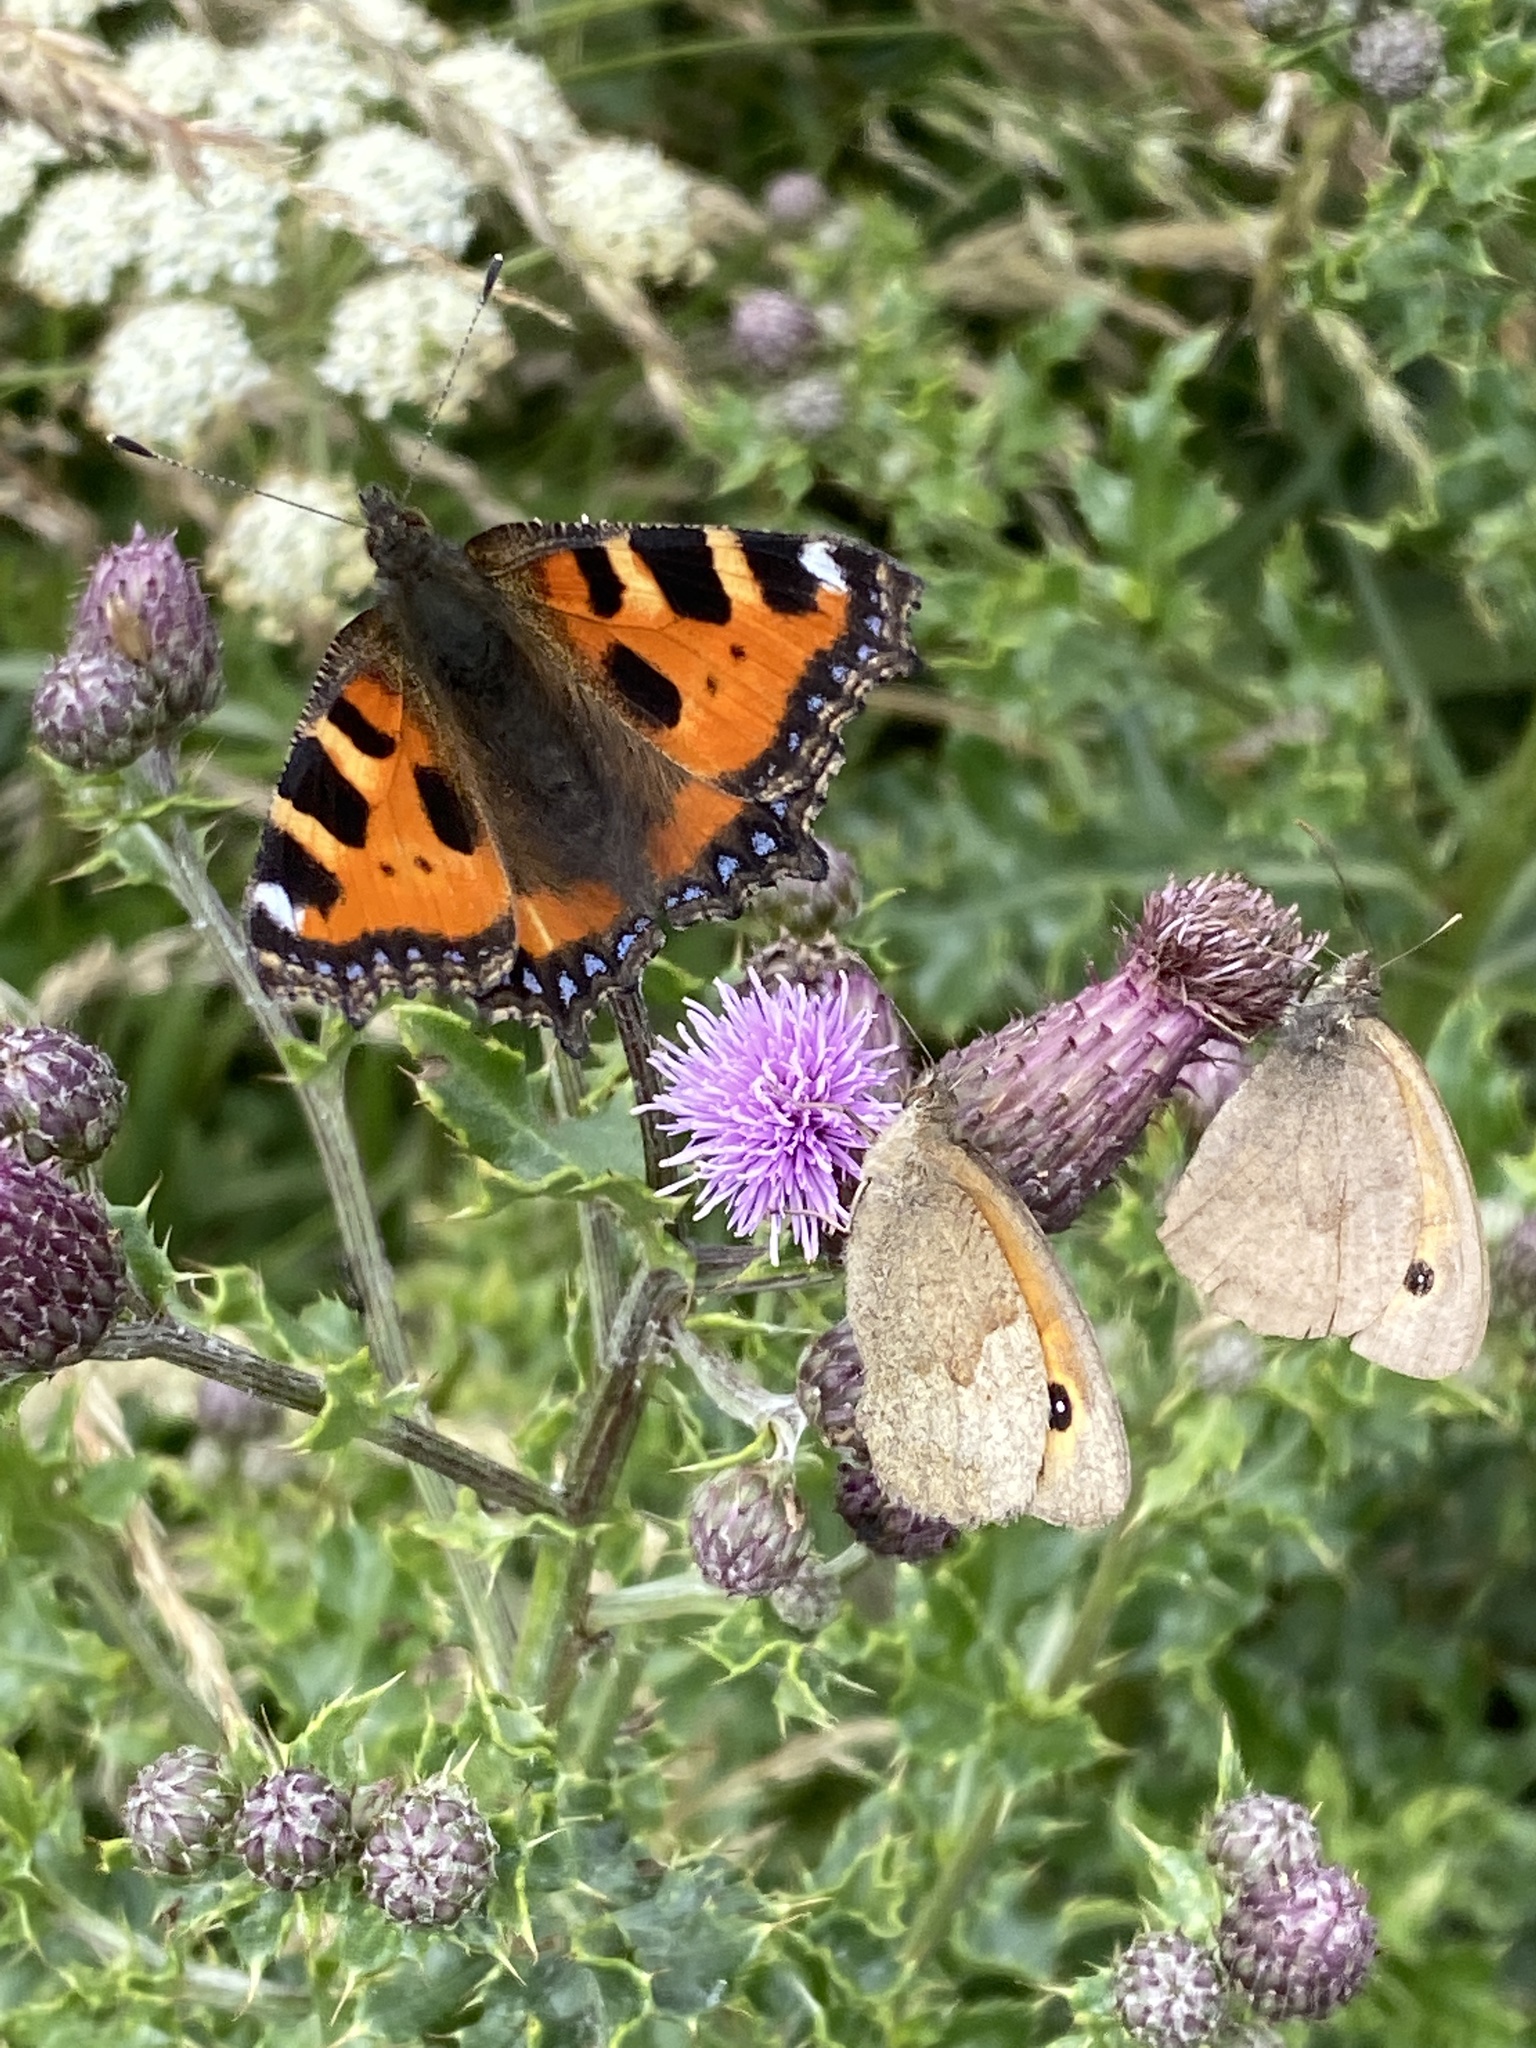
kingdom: Animalia
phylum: Arthropoda
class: Insecta
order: Lepidoptera
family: Nymphalidae
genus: Aglais
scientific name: Aglais urticae
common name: Small tortoiseshell
